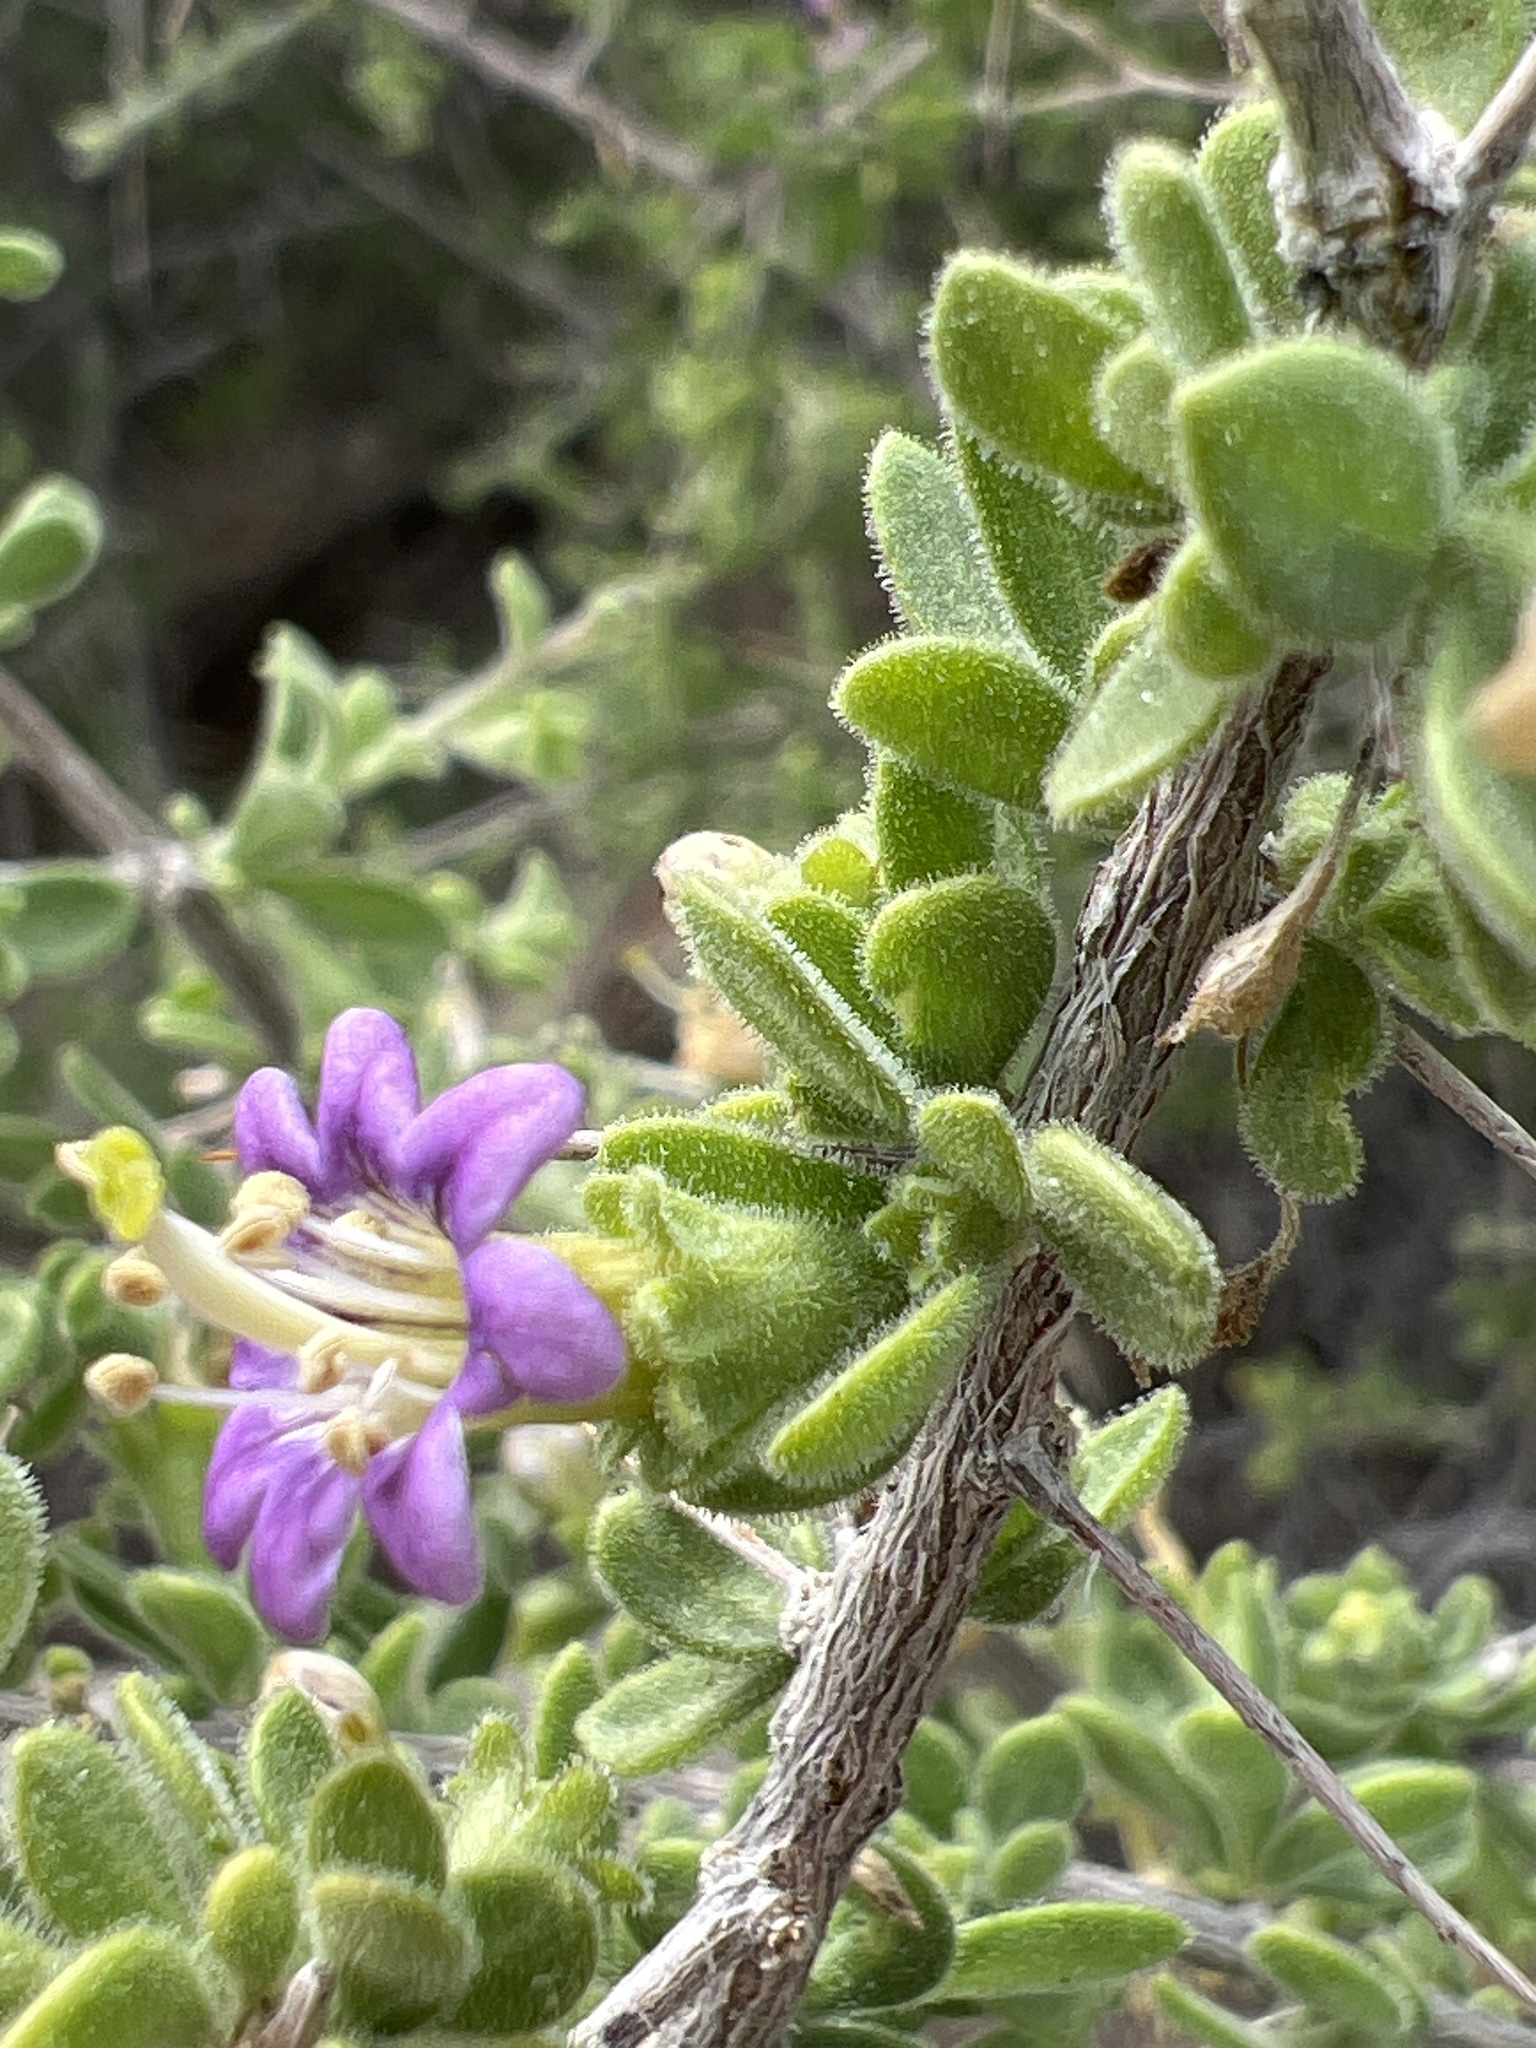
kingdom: Plantae
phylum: Tracheophyta
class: Magnoliopsida
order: Solanales
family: Solanaceae
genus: Lycium
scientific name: Lycium brevipes
